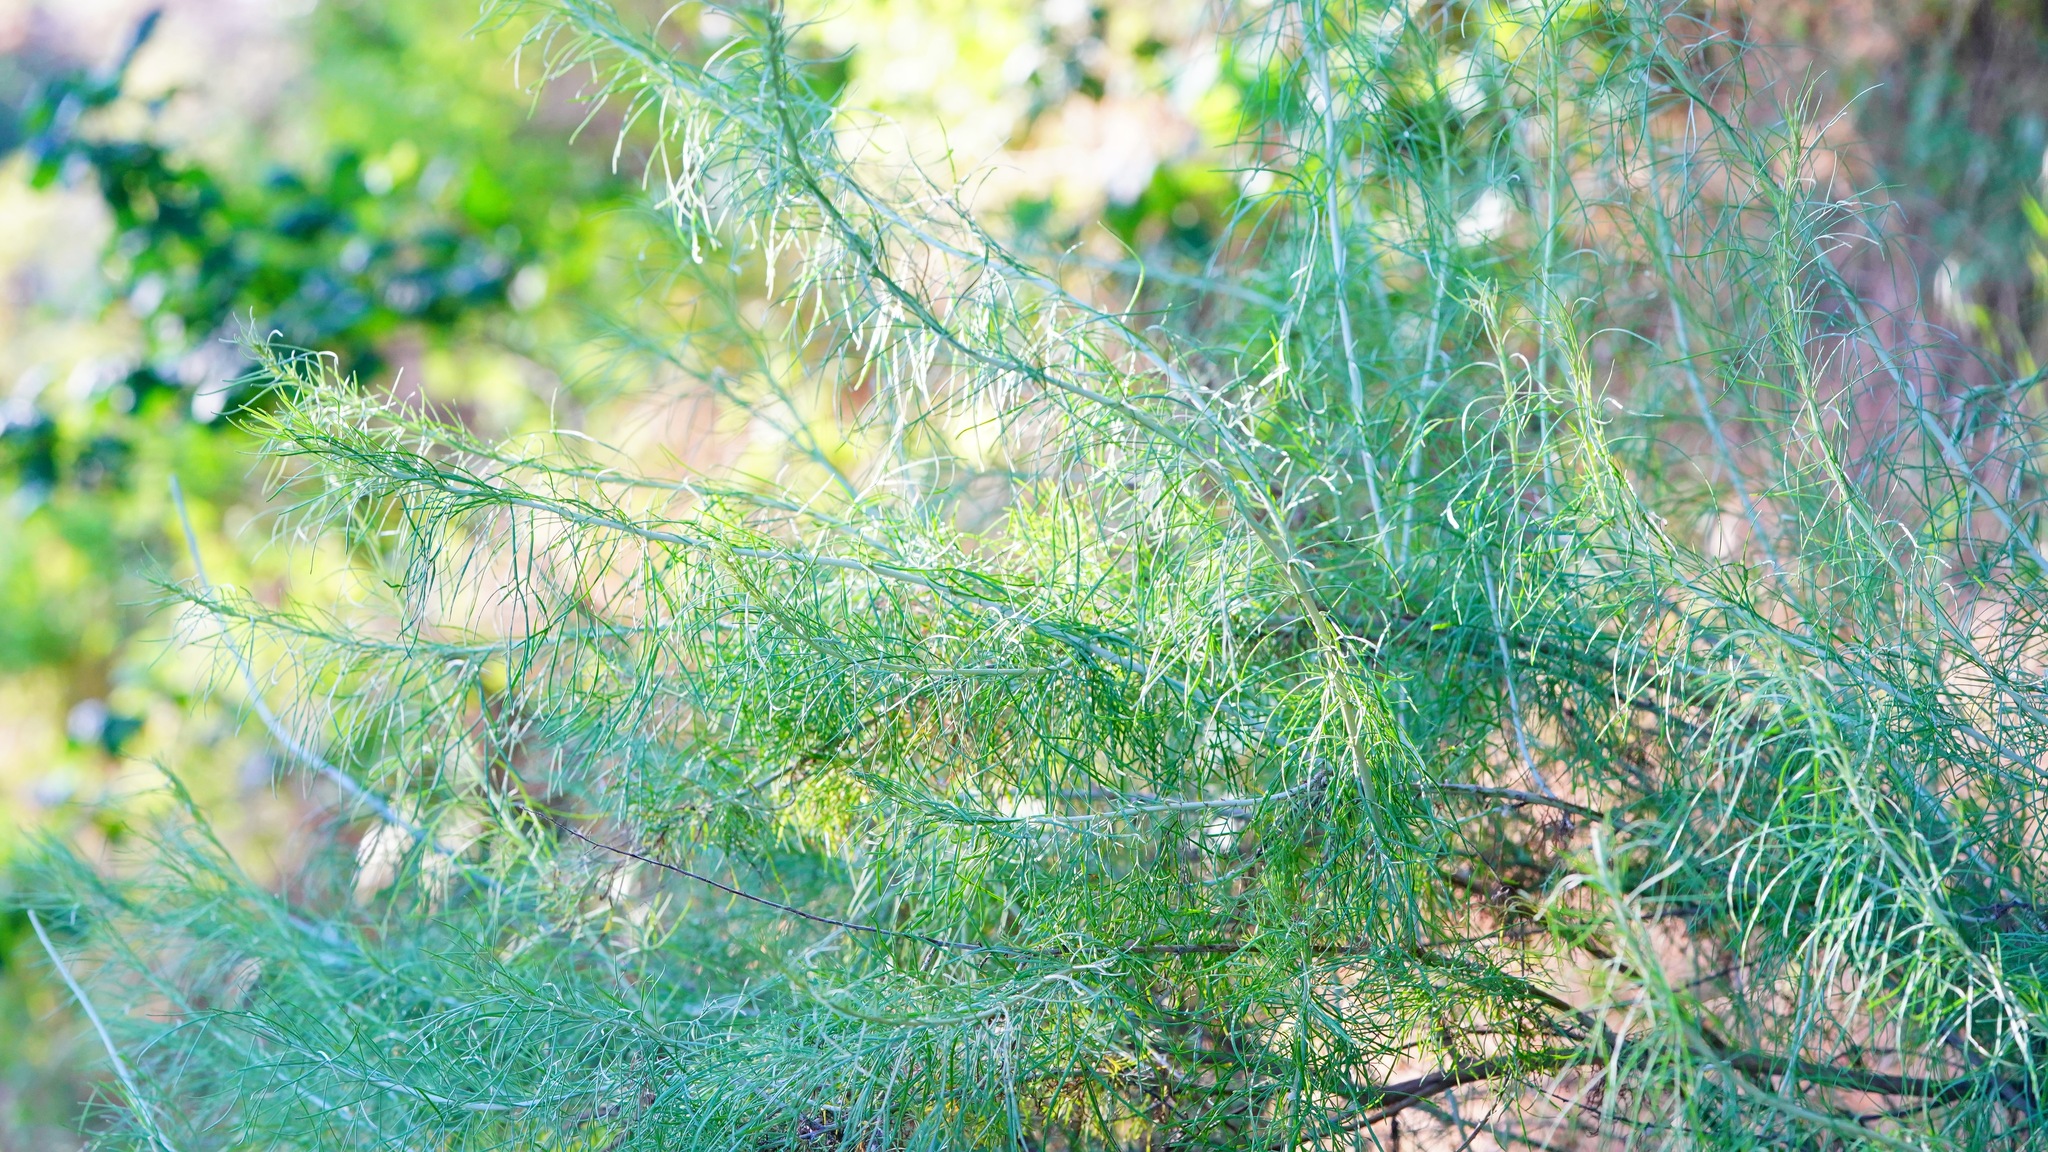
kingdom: Plantae
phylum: Tracheophyta
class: Magnoliopsida
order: Asterales
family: Asteraceae
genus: Artemisia
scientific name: Artemisia californica
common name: California sagebrush
